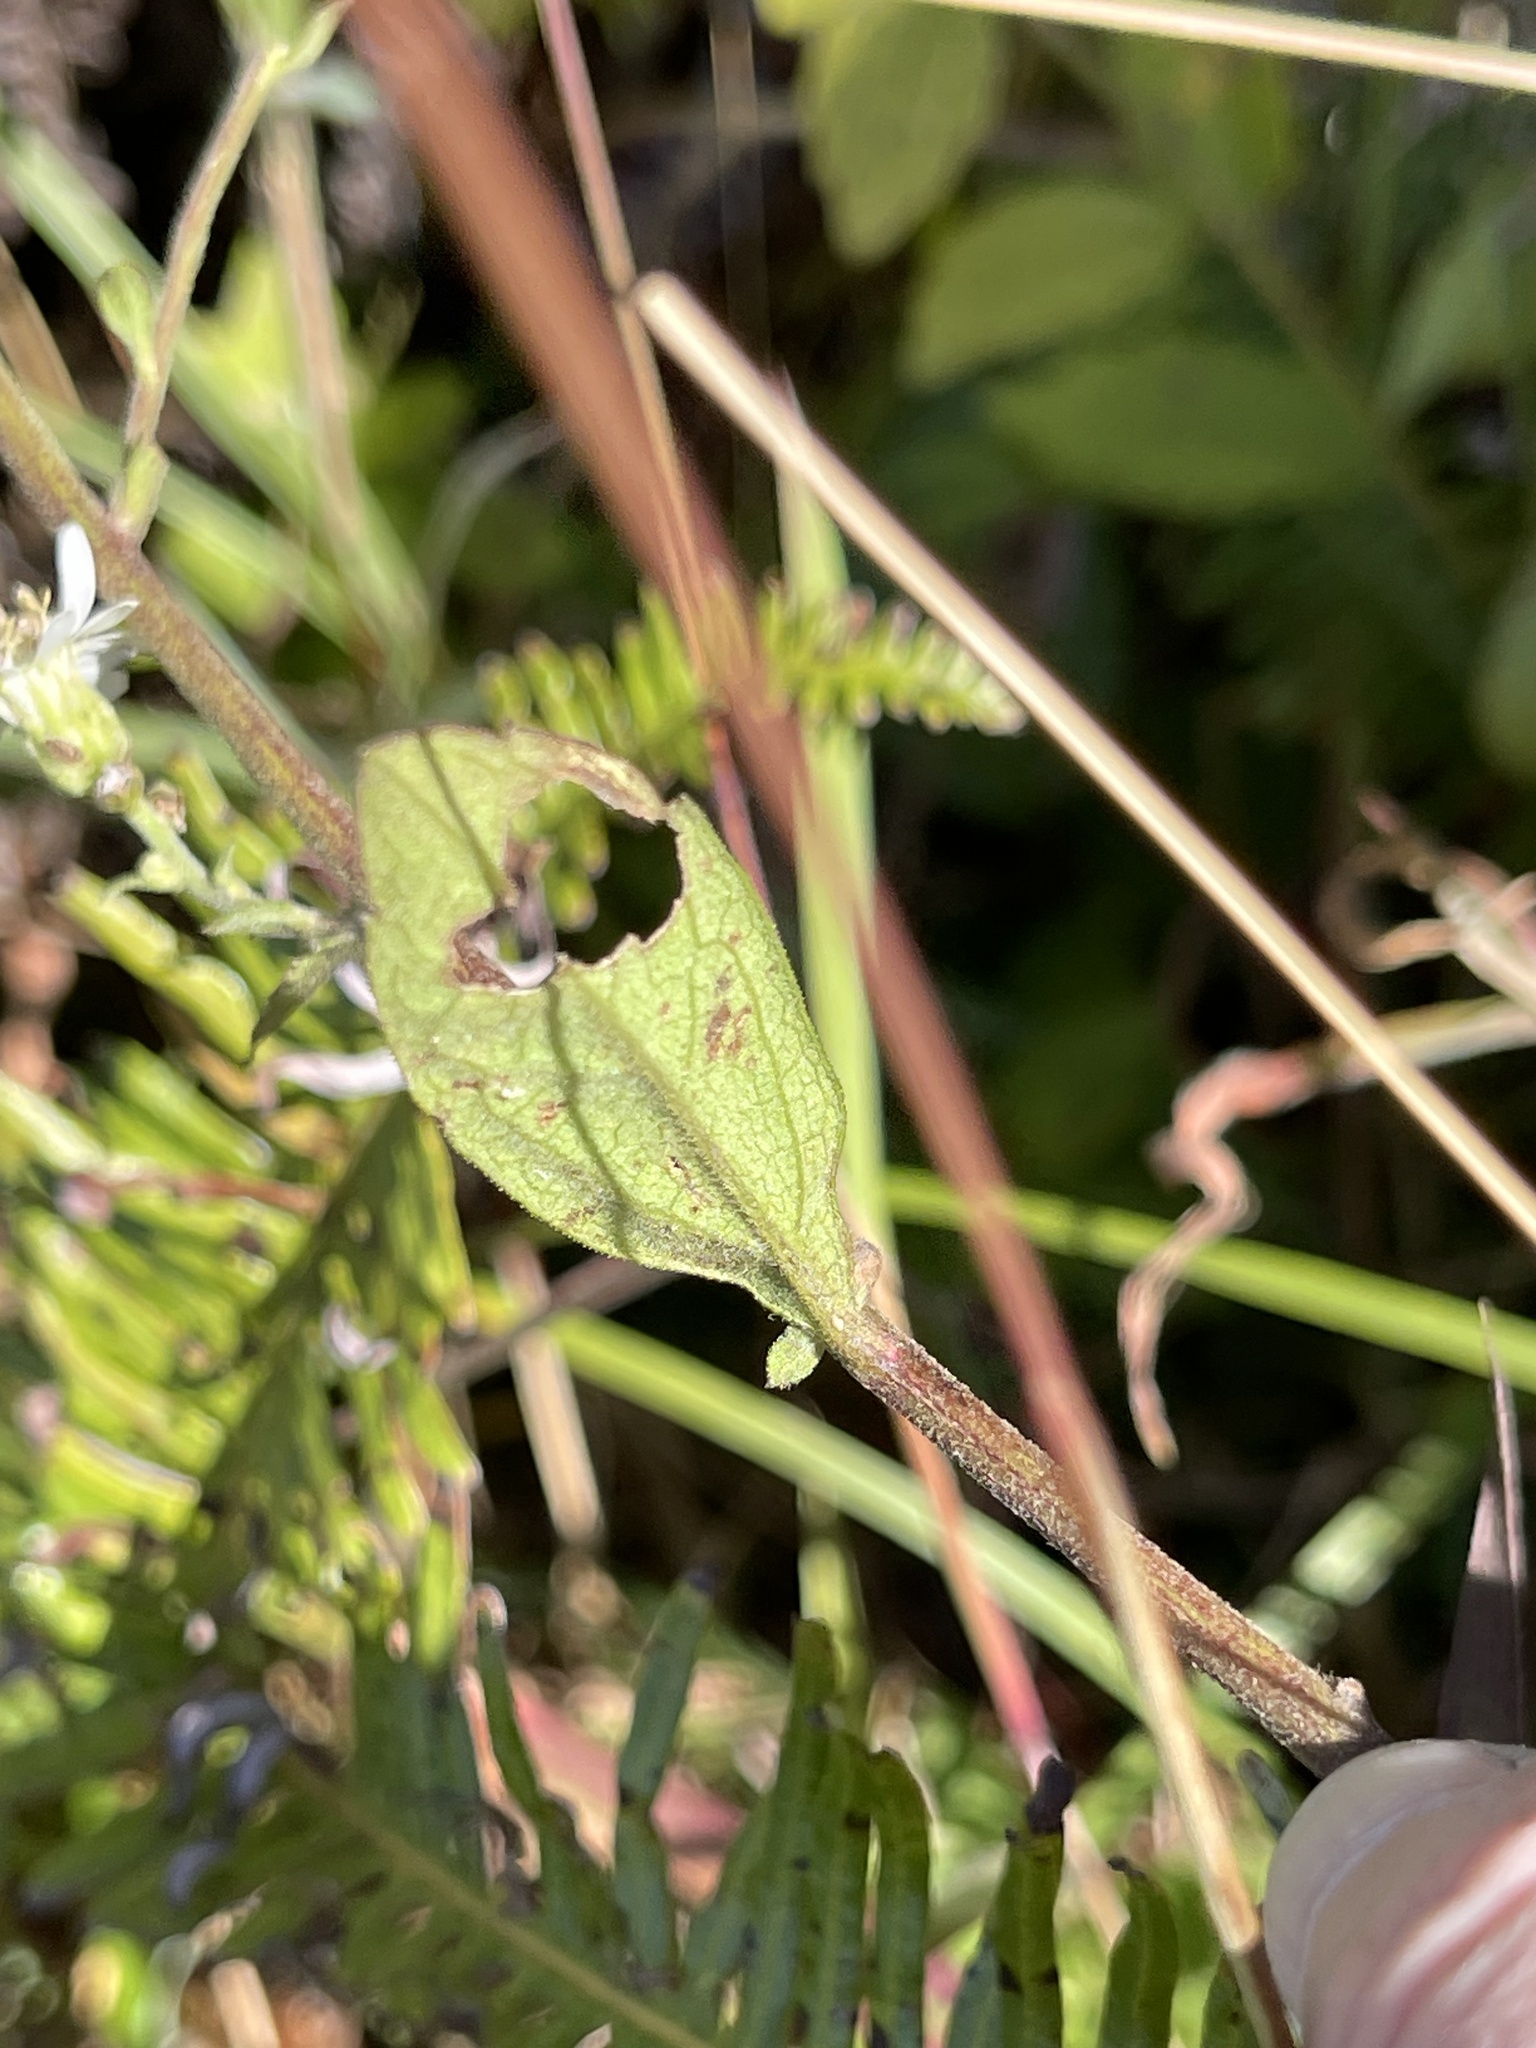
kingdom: Plantae
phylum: Tracheophyta
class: Magnoliopsida
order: Asterales
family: Asteraceae
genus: Aster
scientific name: Aster ageratoides
